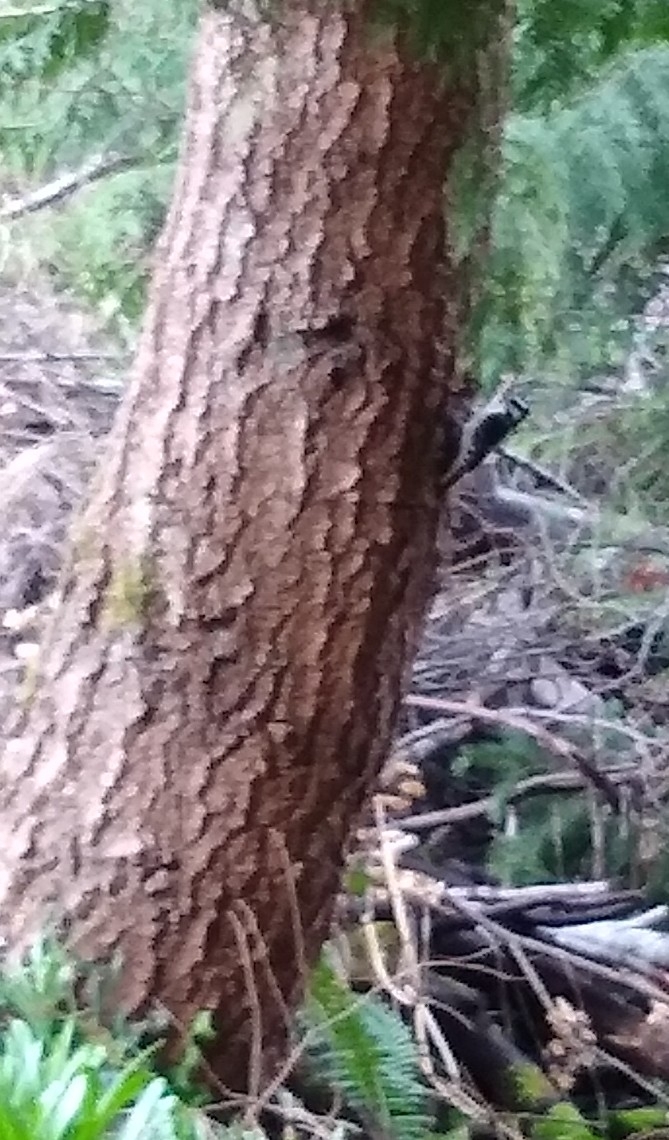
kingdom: Animalia
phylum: Chordata
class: Aves
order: Piciformes
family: Picidae
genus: Dryobates
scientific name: Dryobates pubescens
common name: Downy woodpecker
